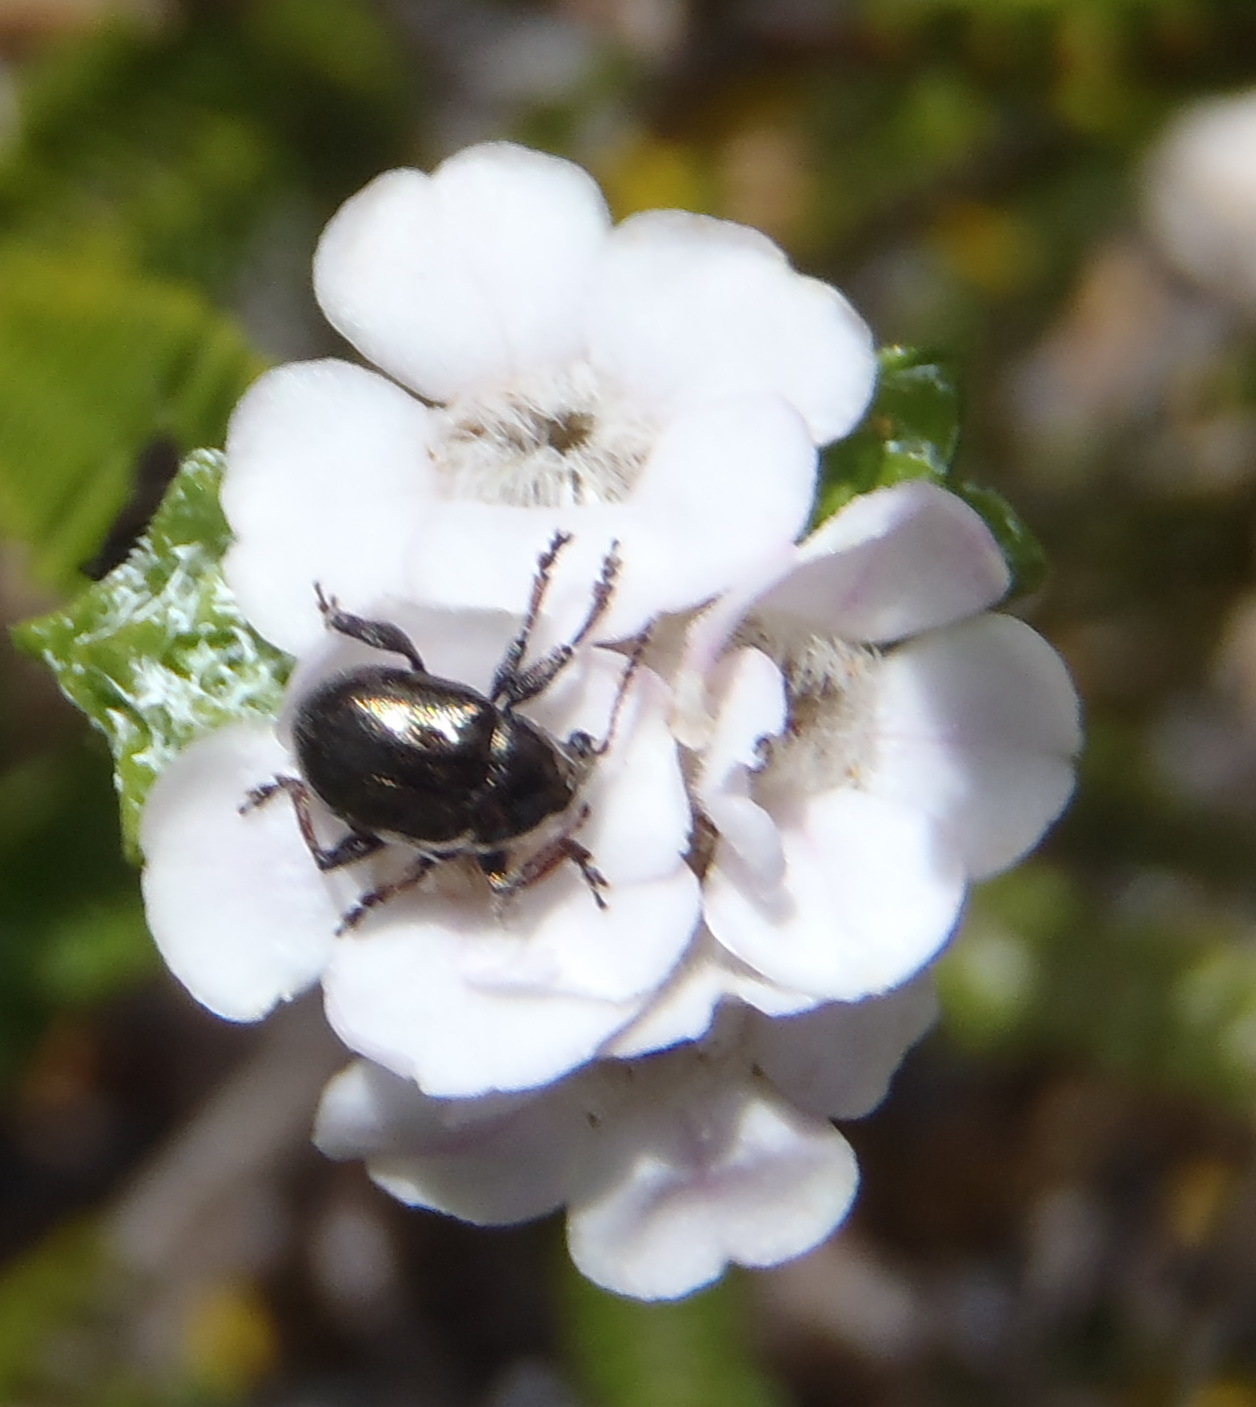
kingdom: Plantae
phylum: Tracheophyta
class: Magnoliopsida
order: Sapindales
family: Rutaceae
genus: Euchaetis
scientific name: Euchaetis burchellii
